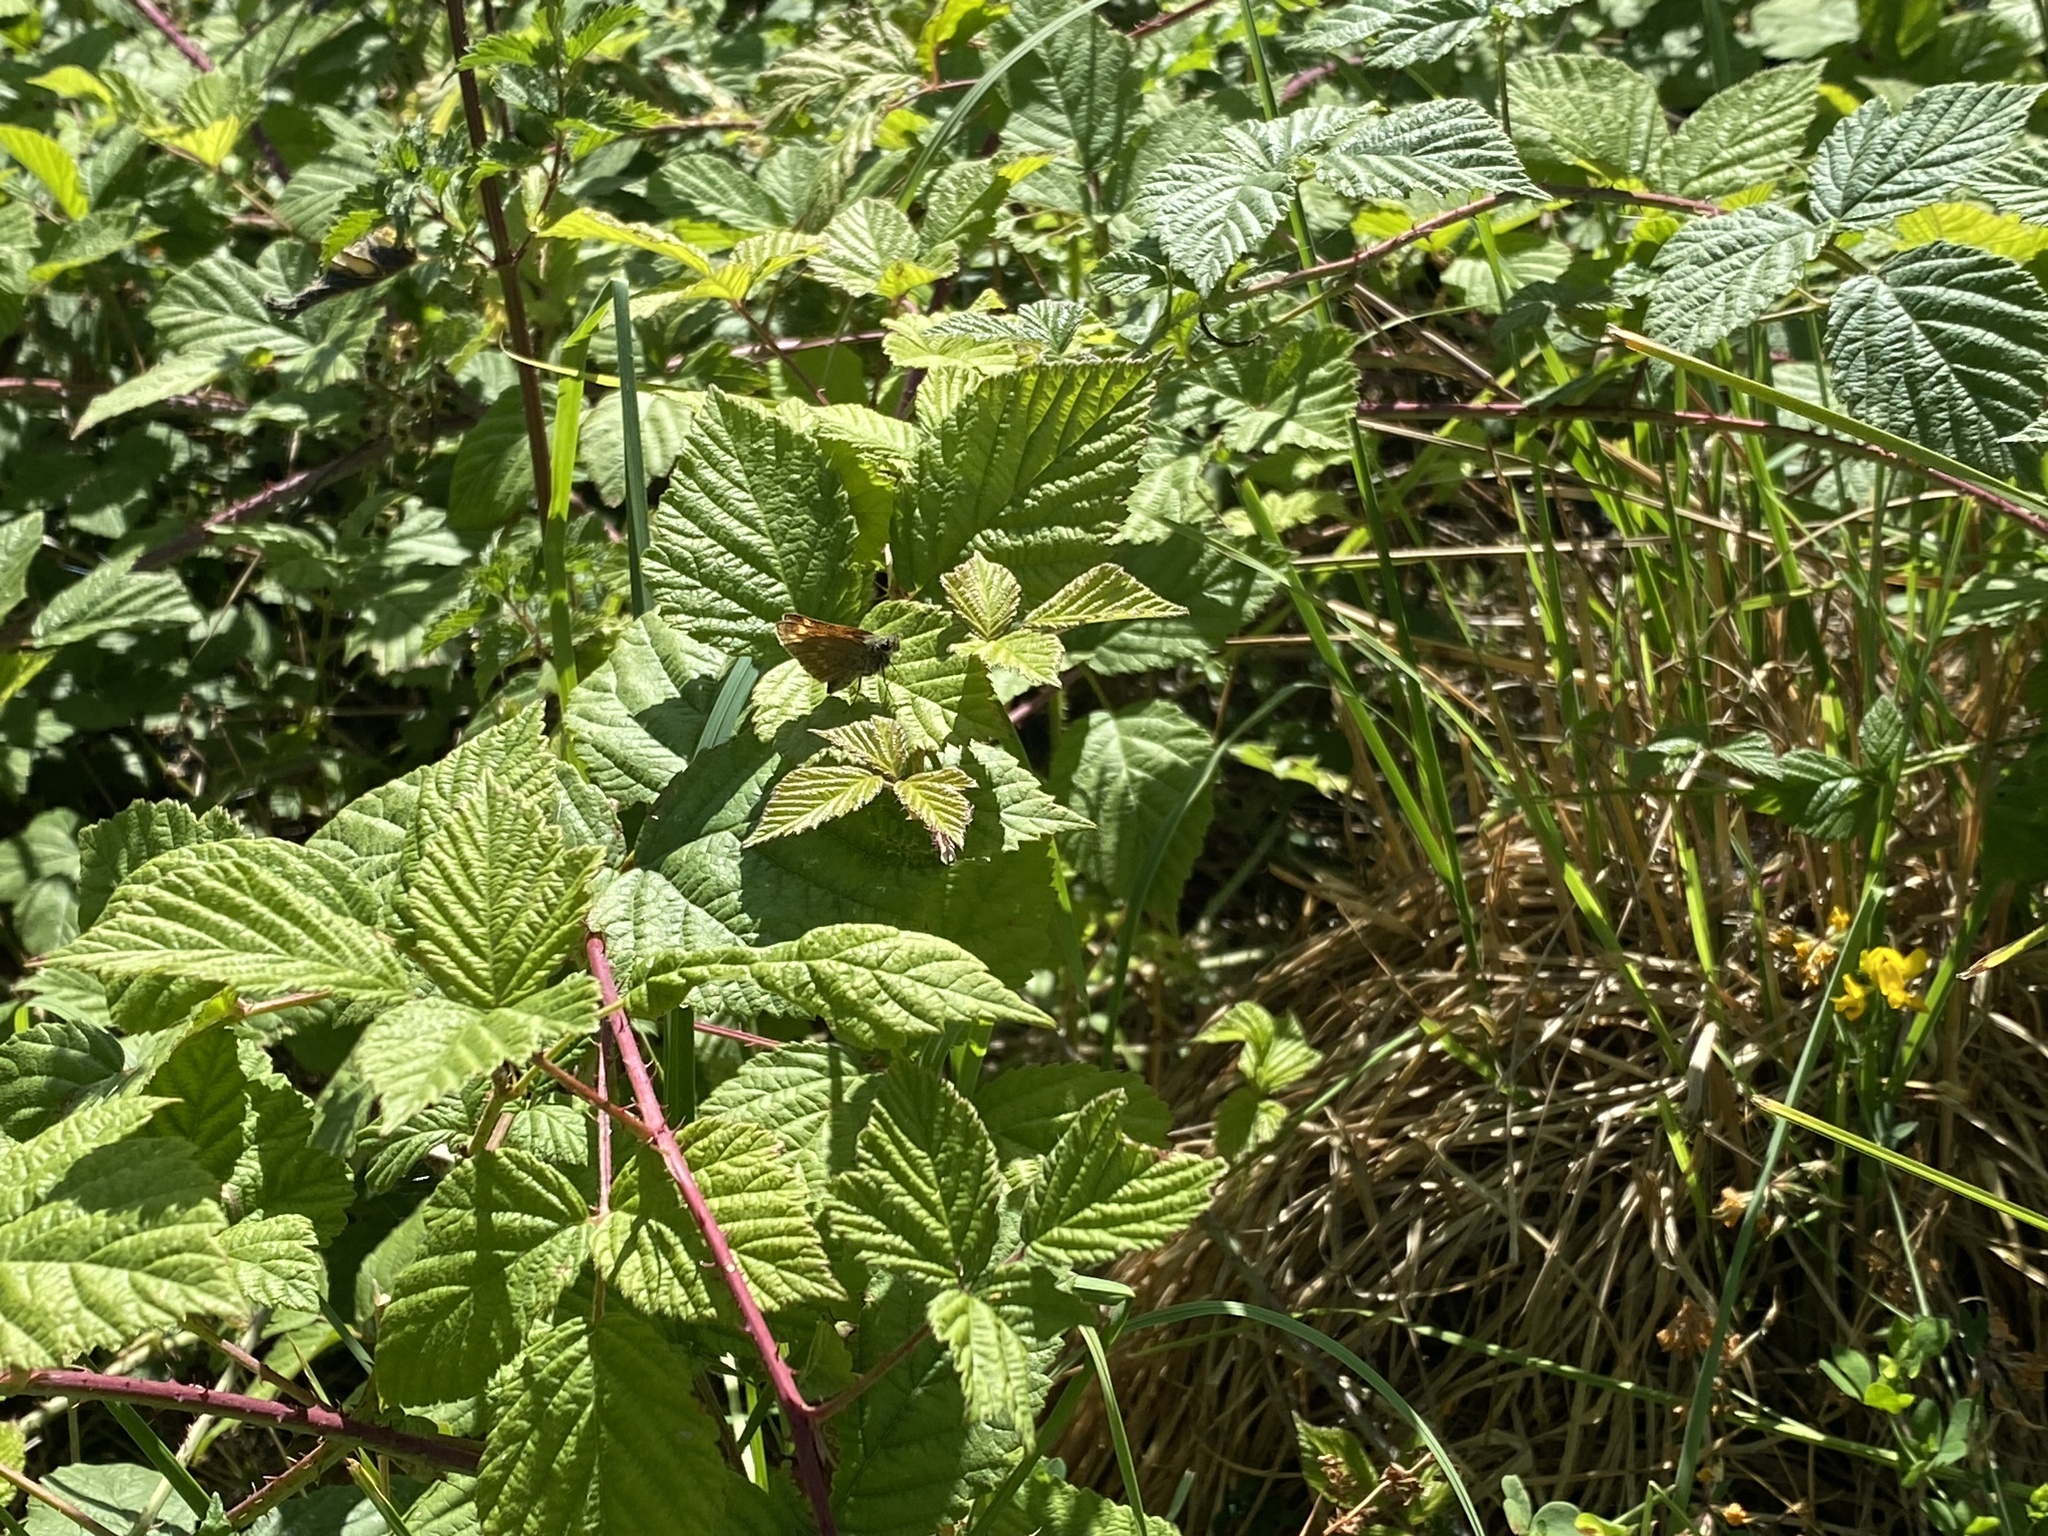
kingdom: Animalia
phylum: Arthropoda
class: Insecta
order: Lepidoptera
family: Hesperiidae
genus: Ochlodes
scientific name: Ochlodes venata
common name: Large skipper
